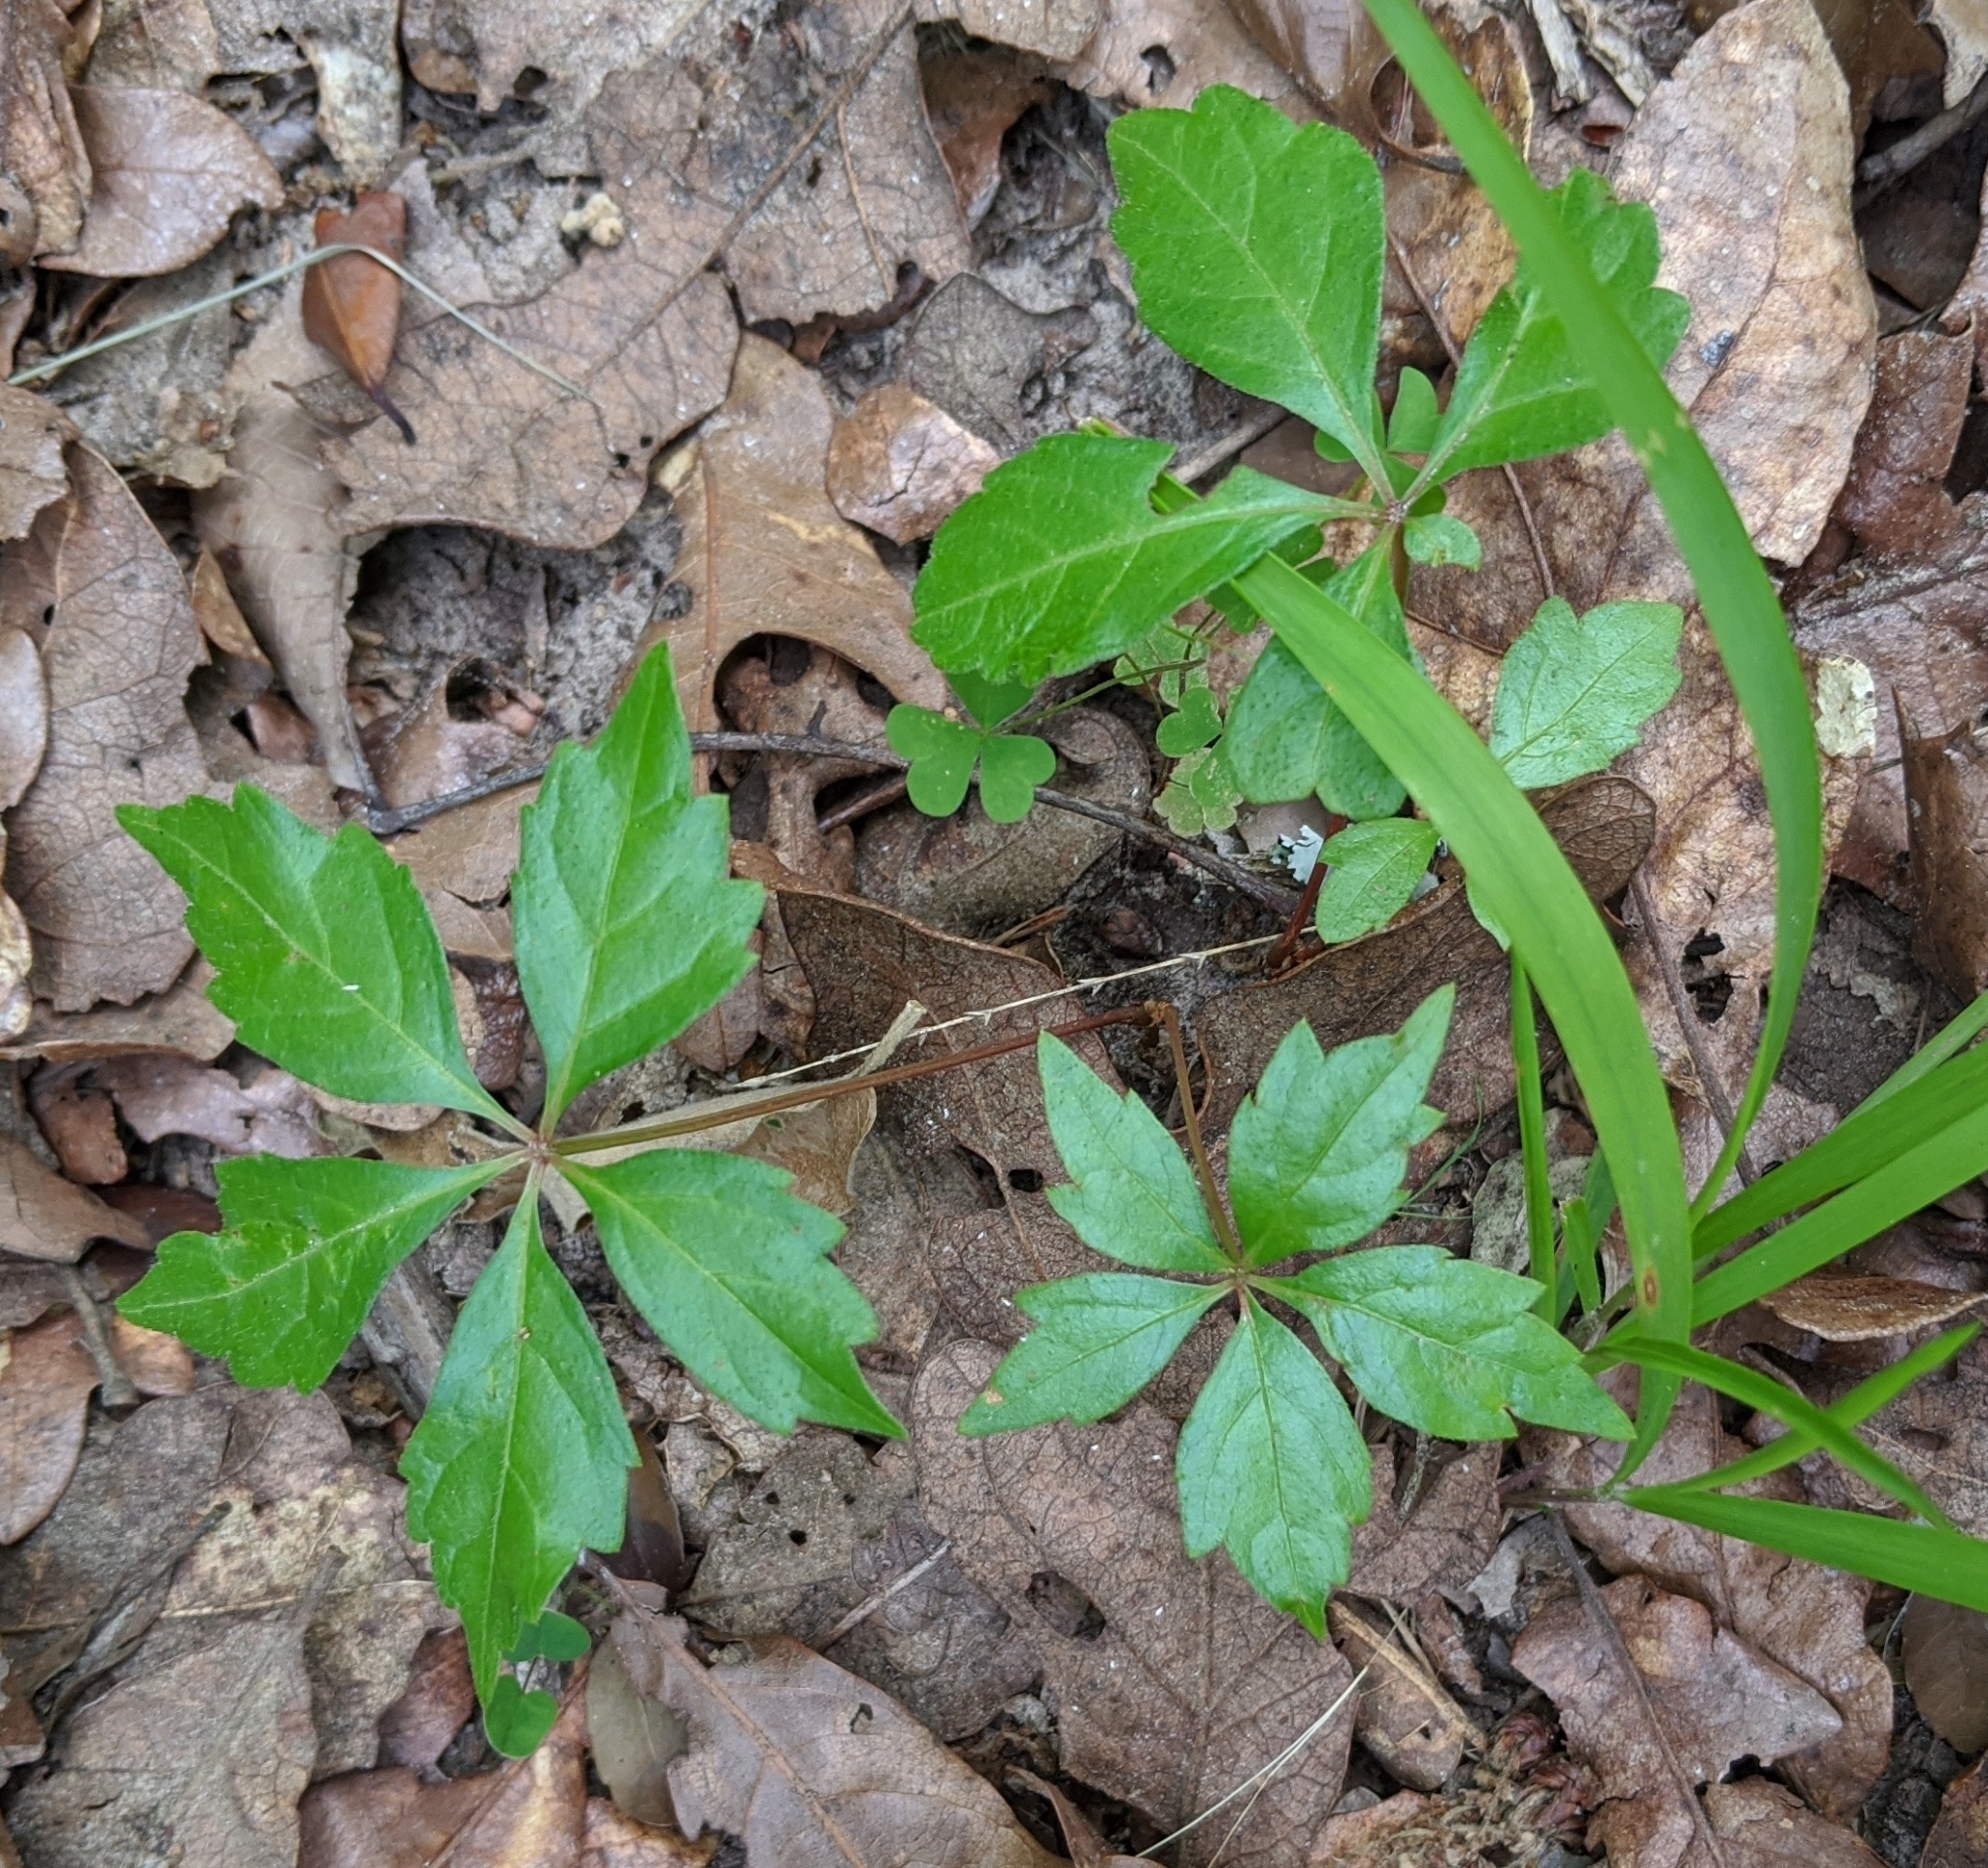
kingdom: Plantae
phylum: Tracheophyta
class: Magnoliopsida
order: Vitales
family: Vitaceae
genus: Parthenocissus
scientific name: Parthenocissus quinquefolia
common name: Virginia-creeper
